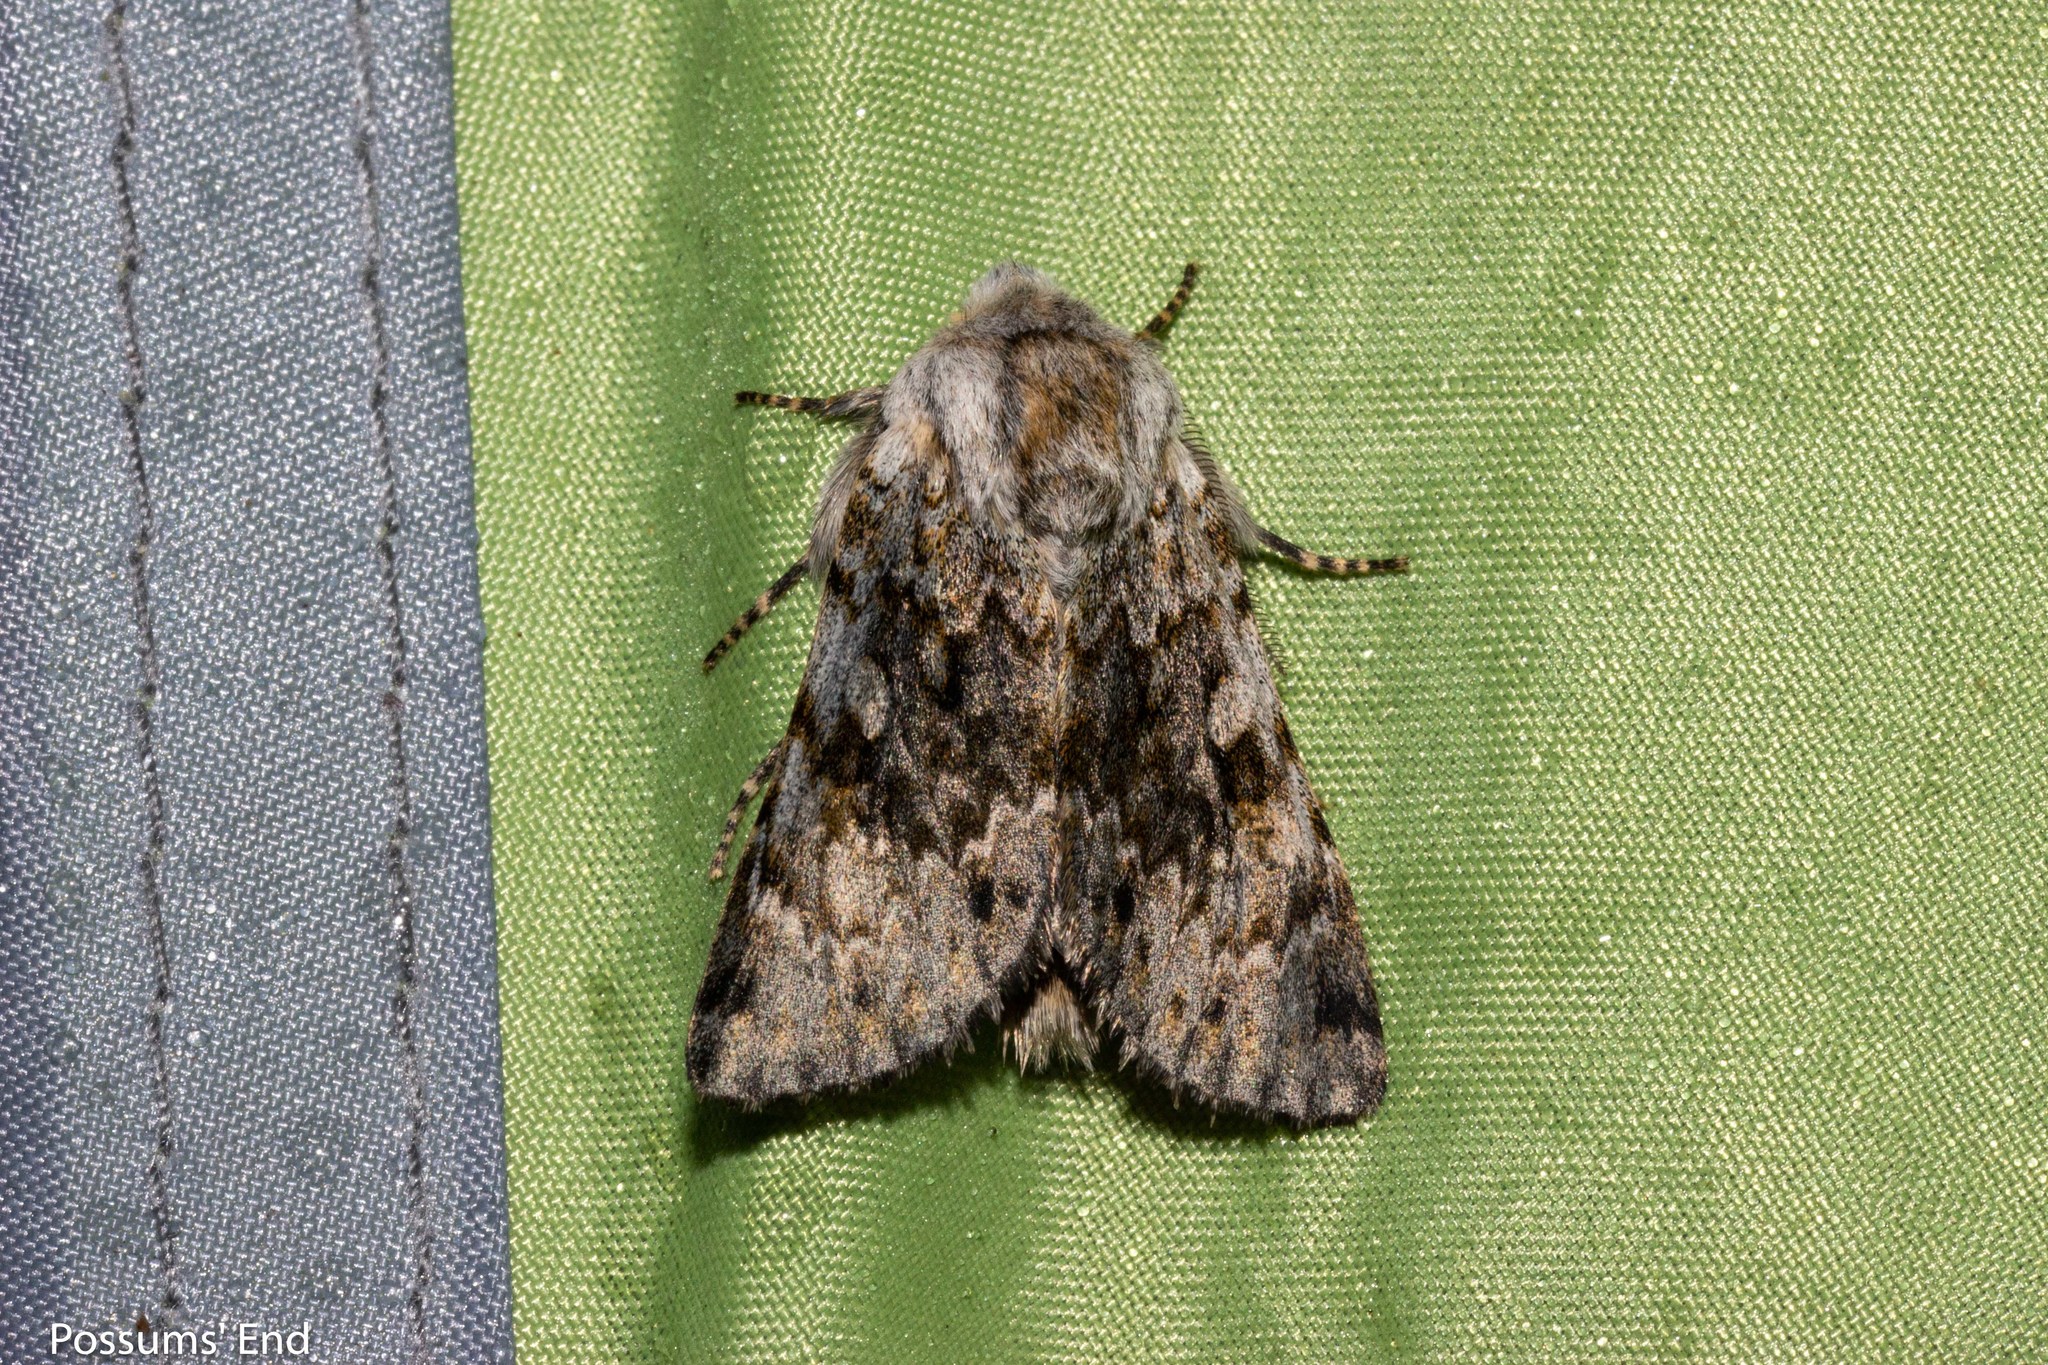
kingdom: Animalia
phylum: Arthropoda
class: Insecta
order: Lepidoptera
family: Noctuidae
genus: Ichneutica
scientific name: Ichneutica cana
